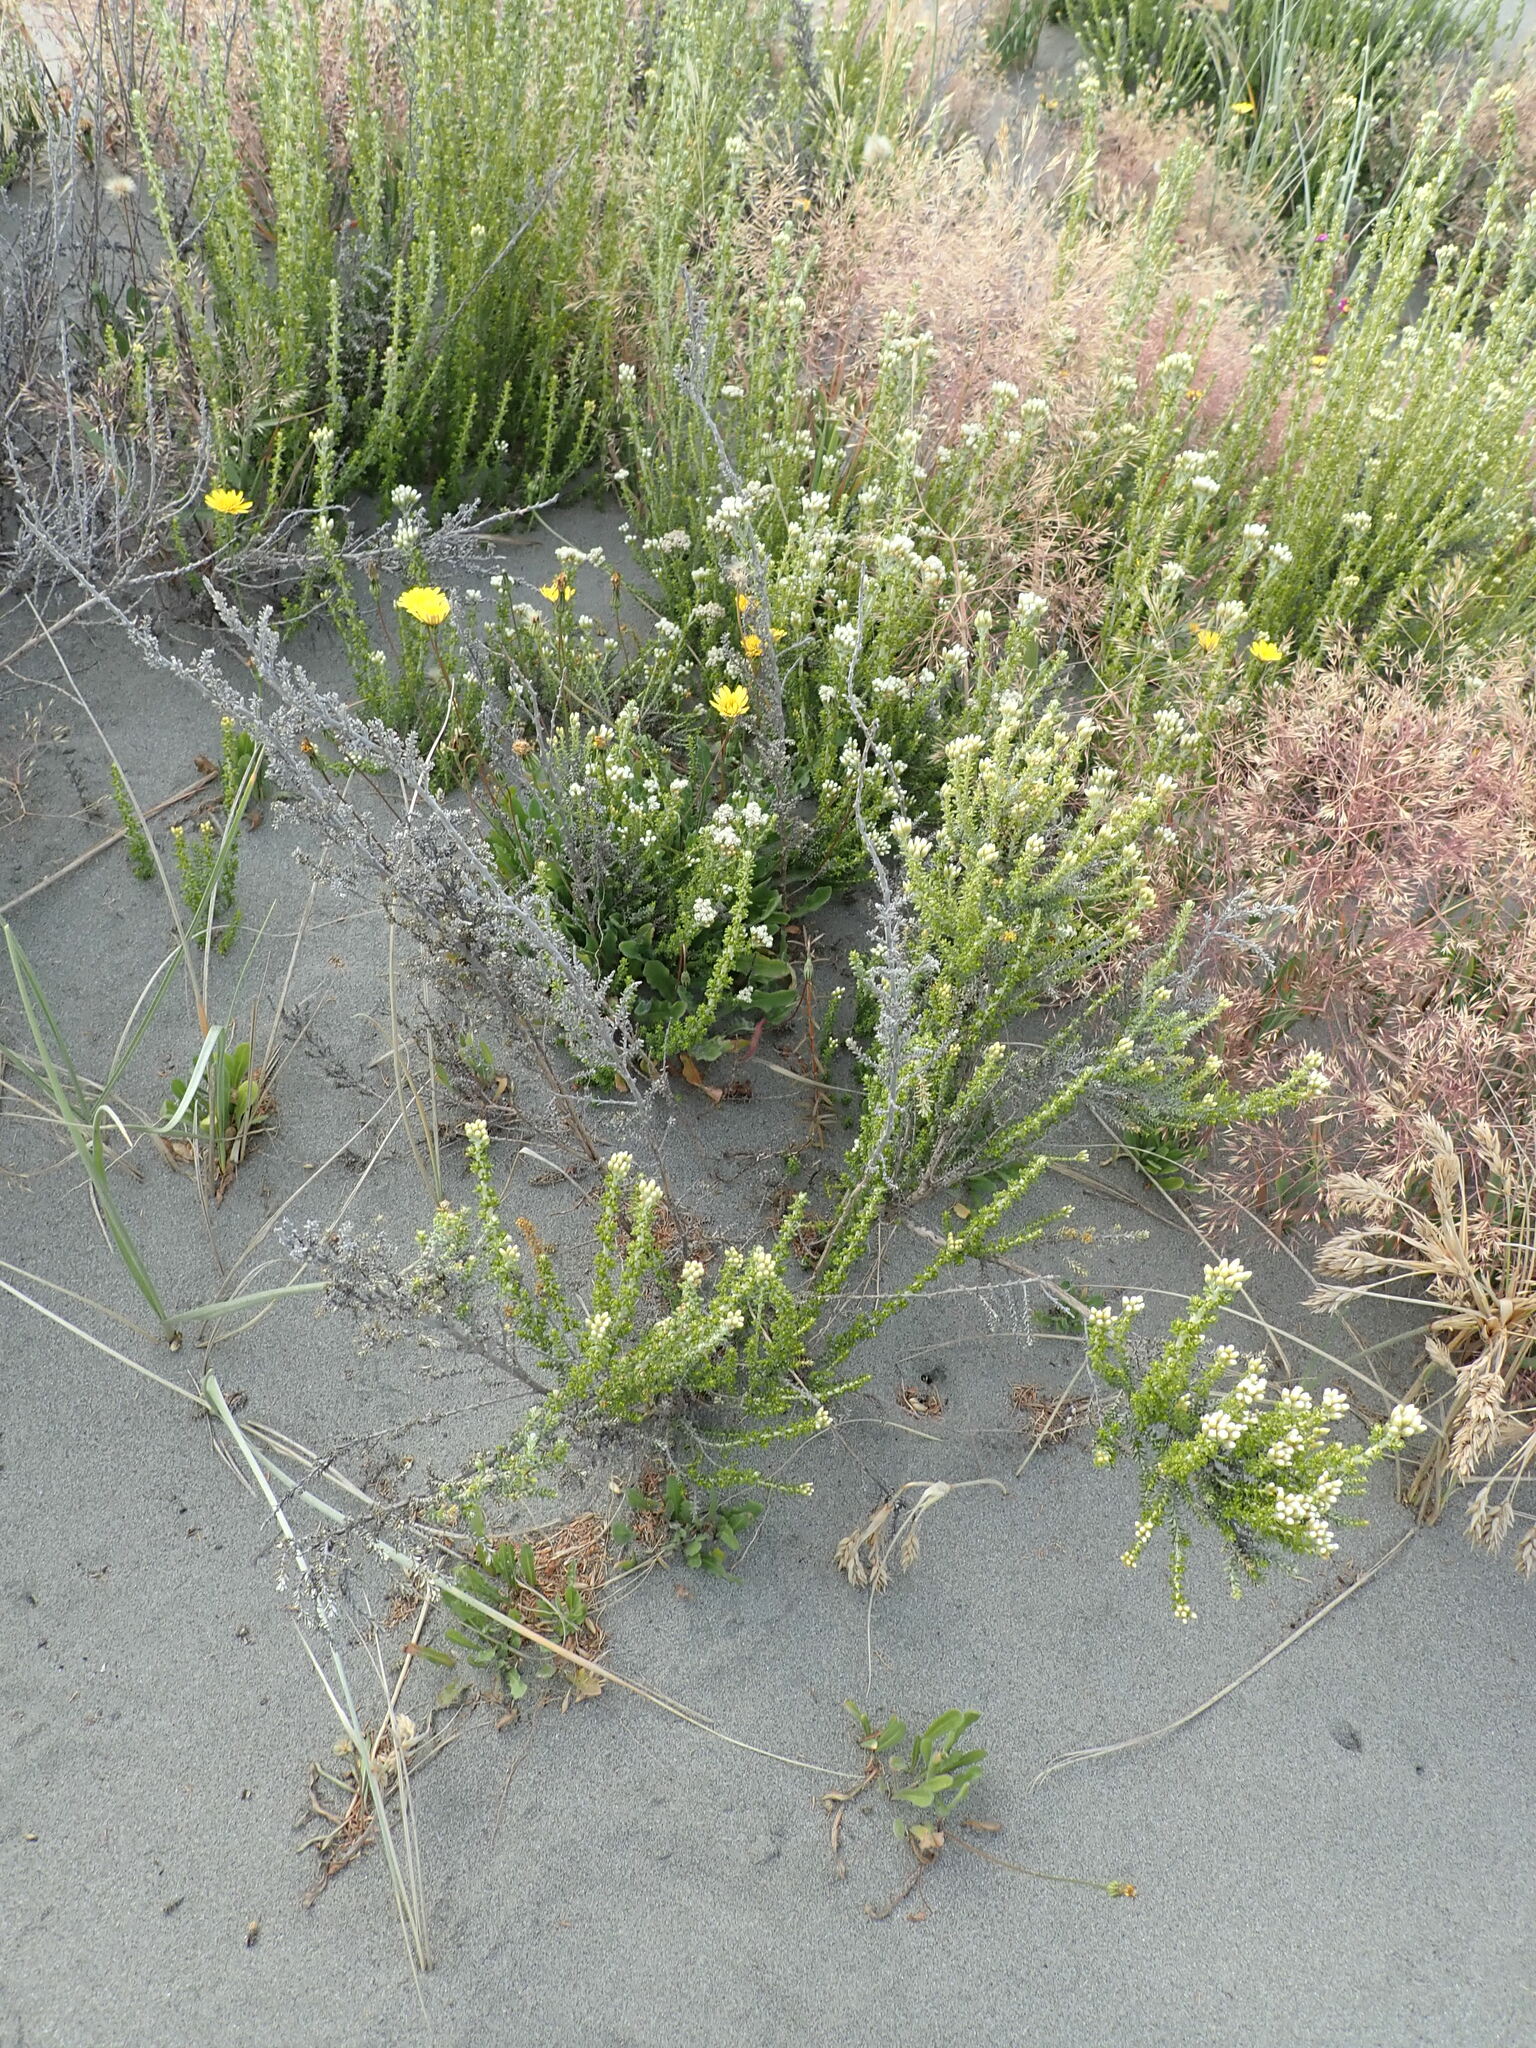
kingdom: Plantae
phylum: Tracheophyta
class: Magnoliopsida
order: Asterales
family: Asteraceae
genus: Ozothamnus
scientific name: Ozothamnus leptophyllus
